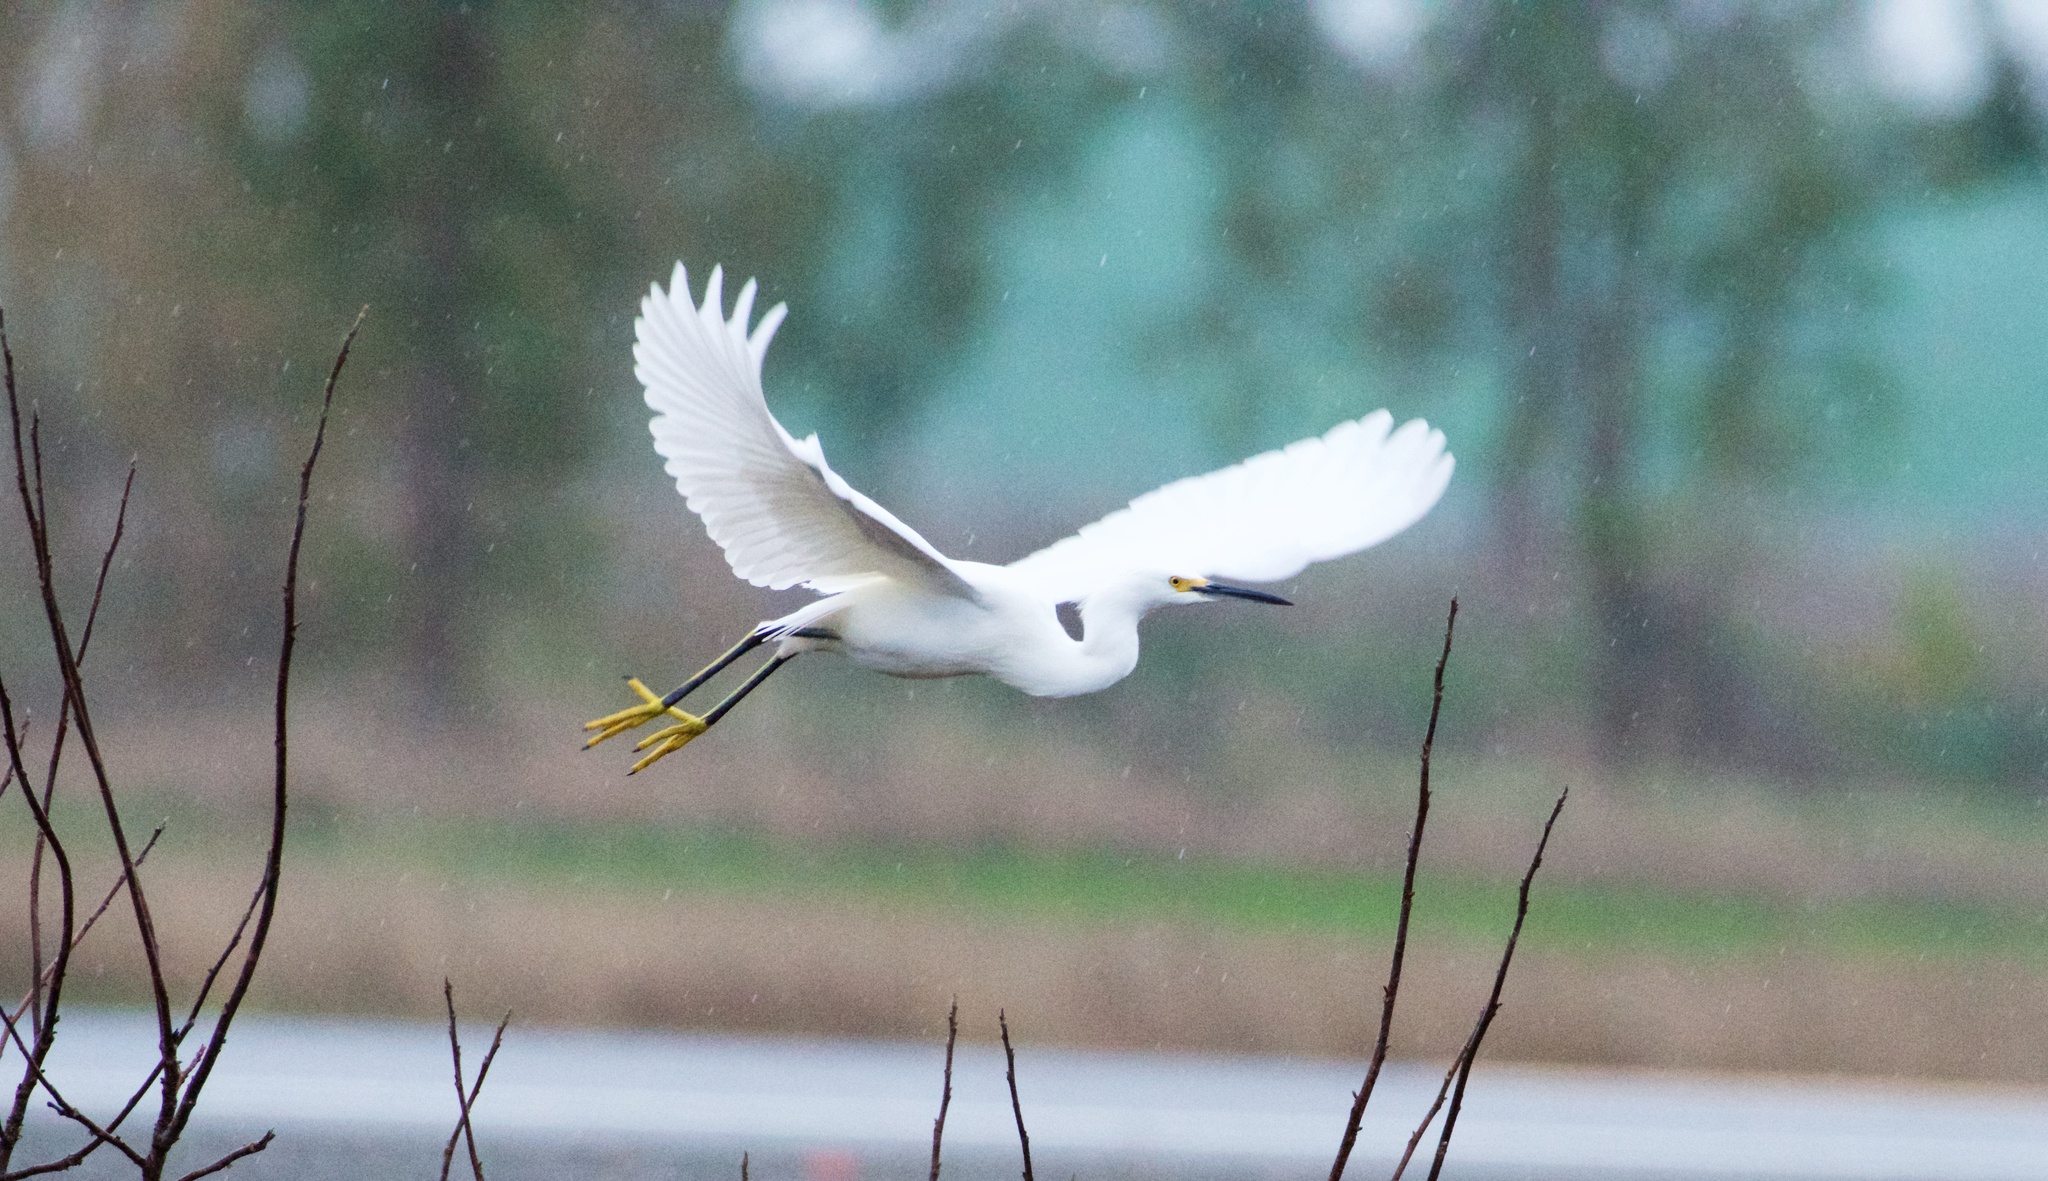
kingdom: Animalia
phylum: Chordata
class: Aves
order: Pelecaniformes
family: Ardeidae
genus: Egretta
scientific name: Egretta thula
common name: Snowy egret
